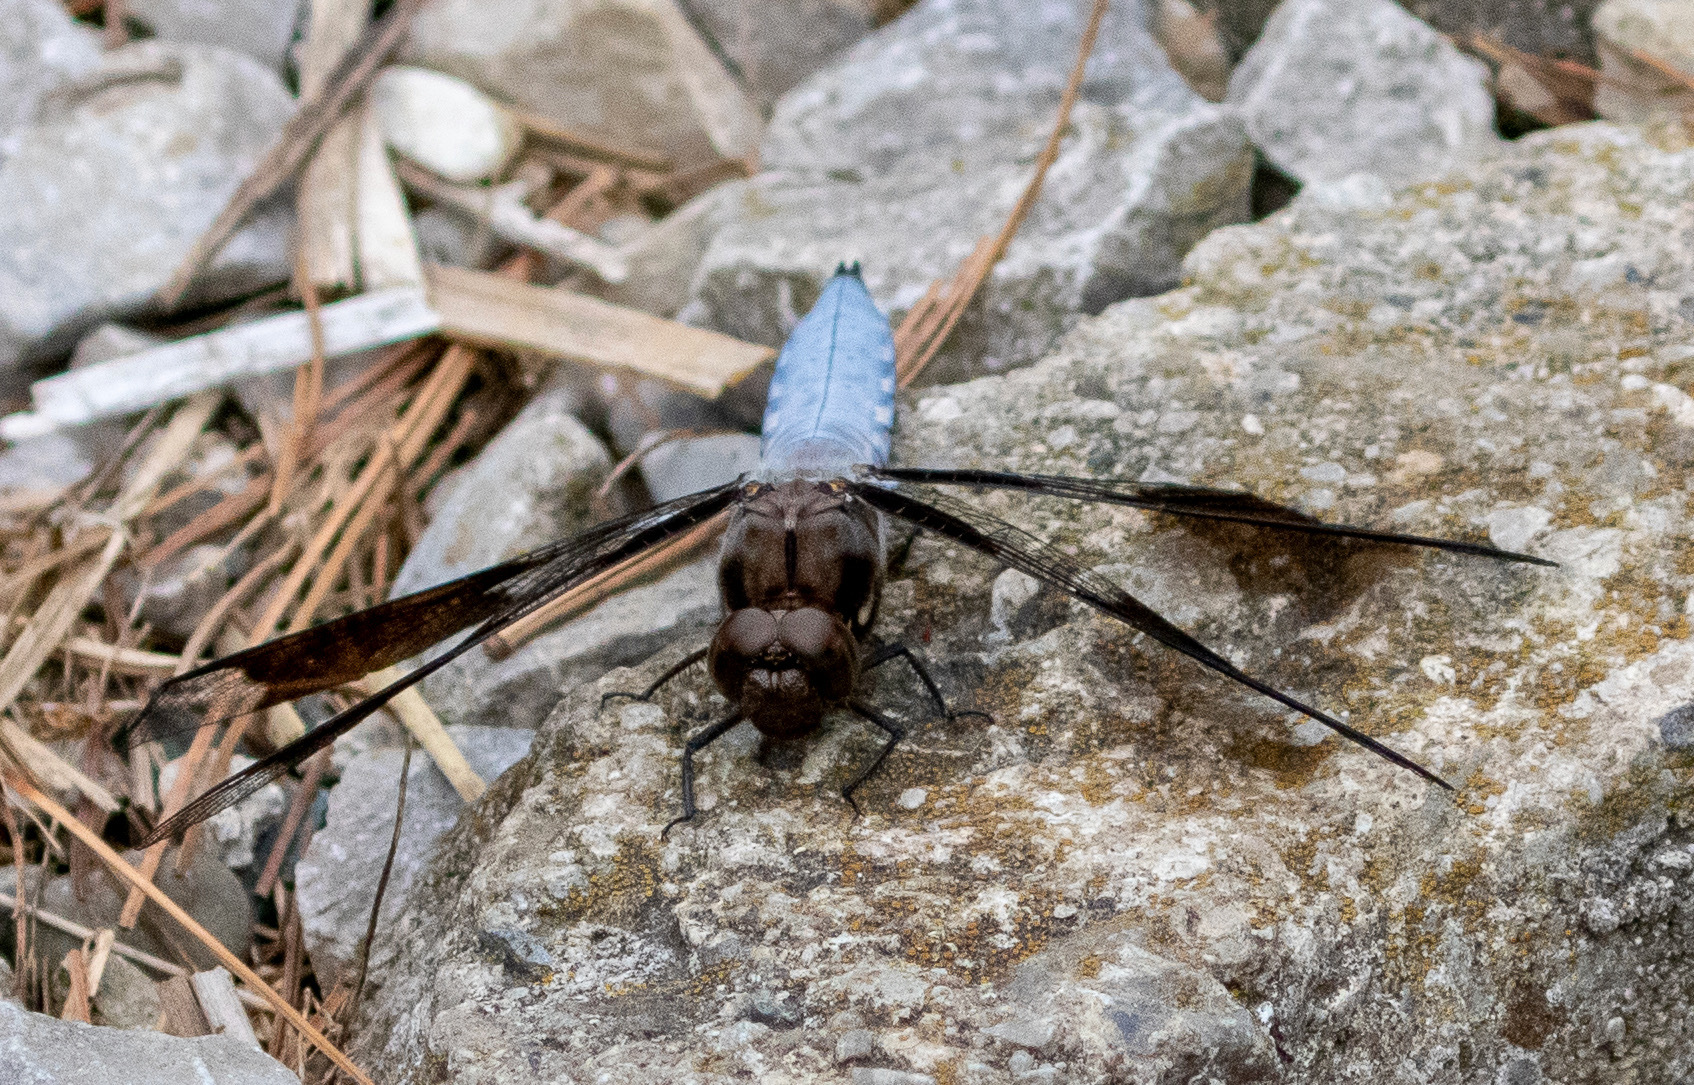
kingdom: Animalia
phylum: Arthropoda
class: Insecta
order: Odonata
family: Libellulidae
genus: Plathemis
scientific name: Plathemis lydia
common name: Common whitetail
